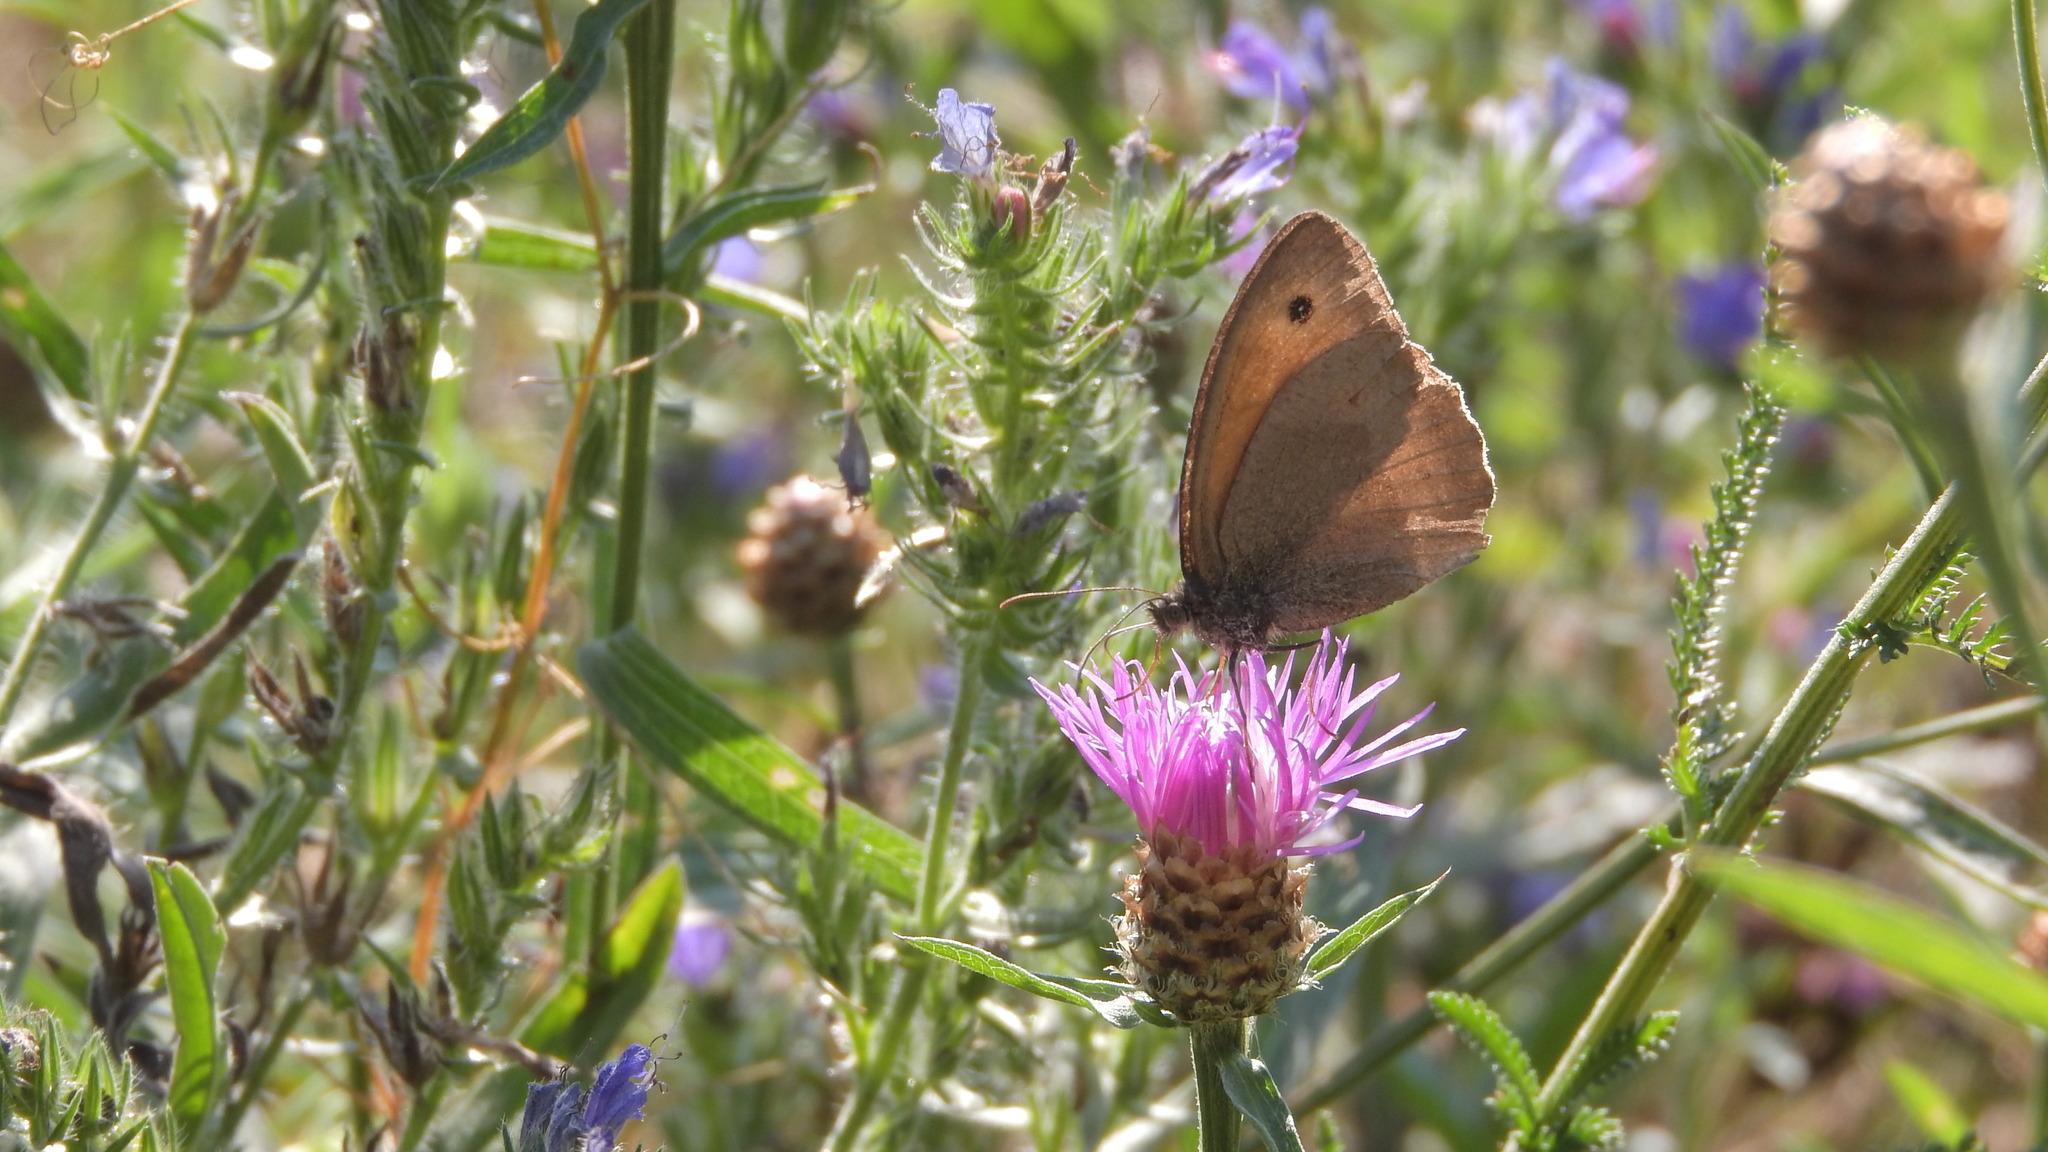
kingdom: Animalia
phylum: Arthropoda
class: Insecta
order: Lepidoptera
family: Nymphalidae
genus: Maniola
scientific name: Maniola jurtina
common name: Meadow brown
